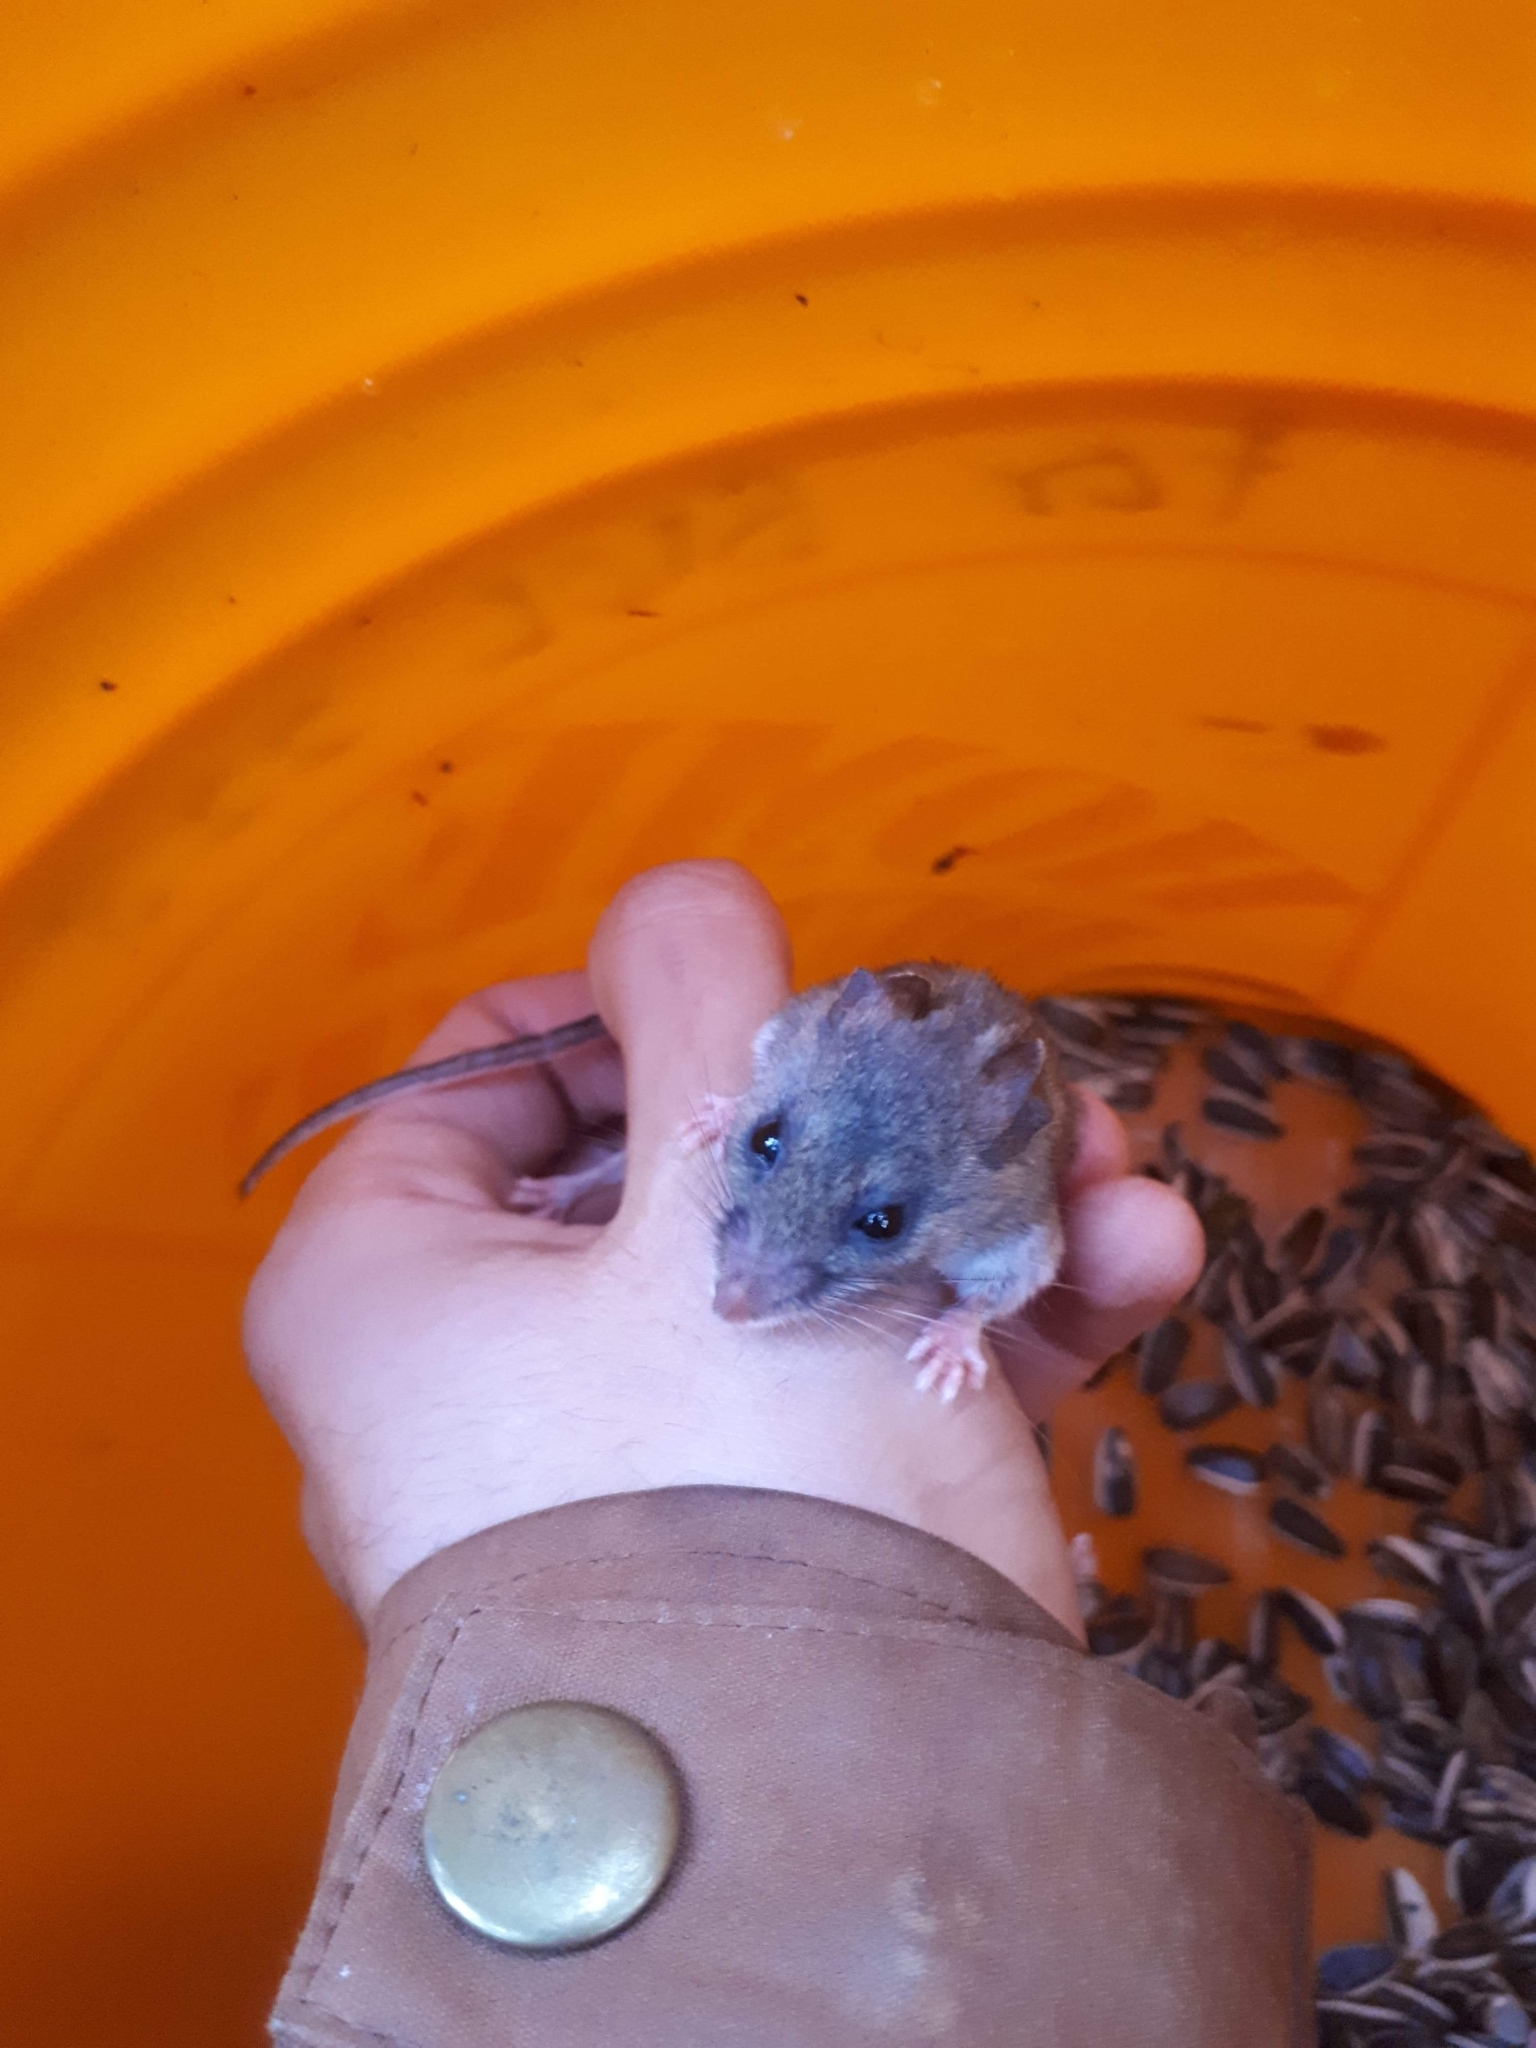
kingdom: Animalia
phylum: Chordata
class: Mammalia
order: Rodentia
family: Cricetidae
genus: Peromyscus
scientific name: Peromyscus maniculatus
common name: Deer mouse
